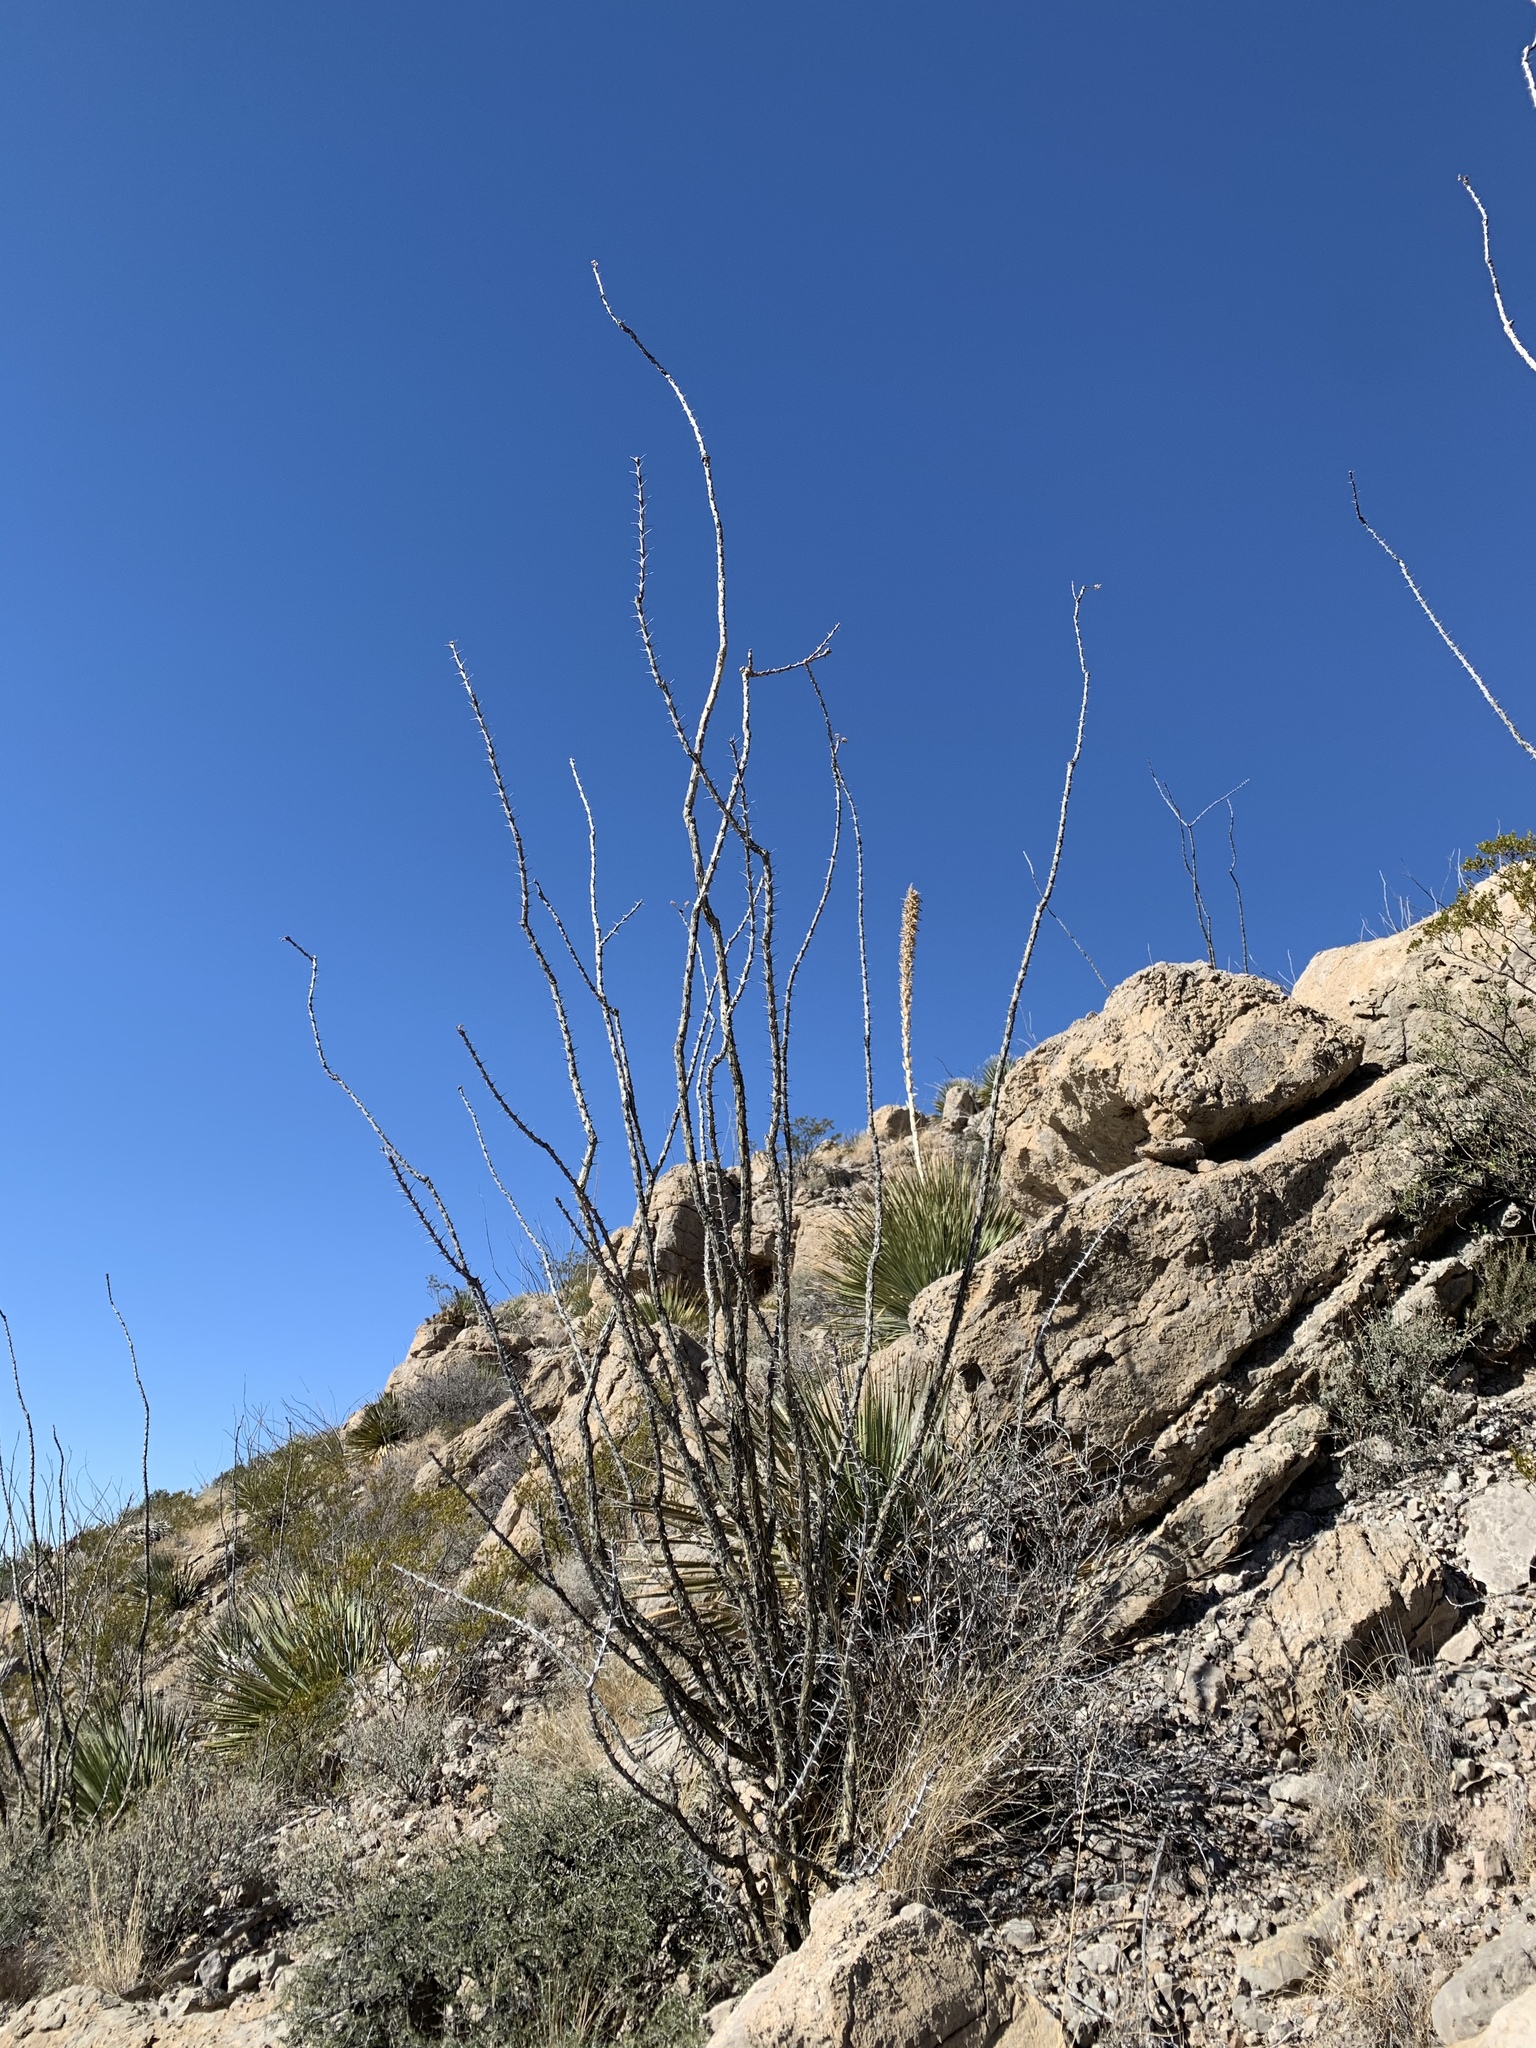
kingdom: Plantae
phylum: Tracheophyta
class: Magnoliopsida
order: Ericales
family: Fouquieriaceae
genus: Fouquieria
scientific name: Fouquieria splendens
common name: Vine-cactus
